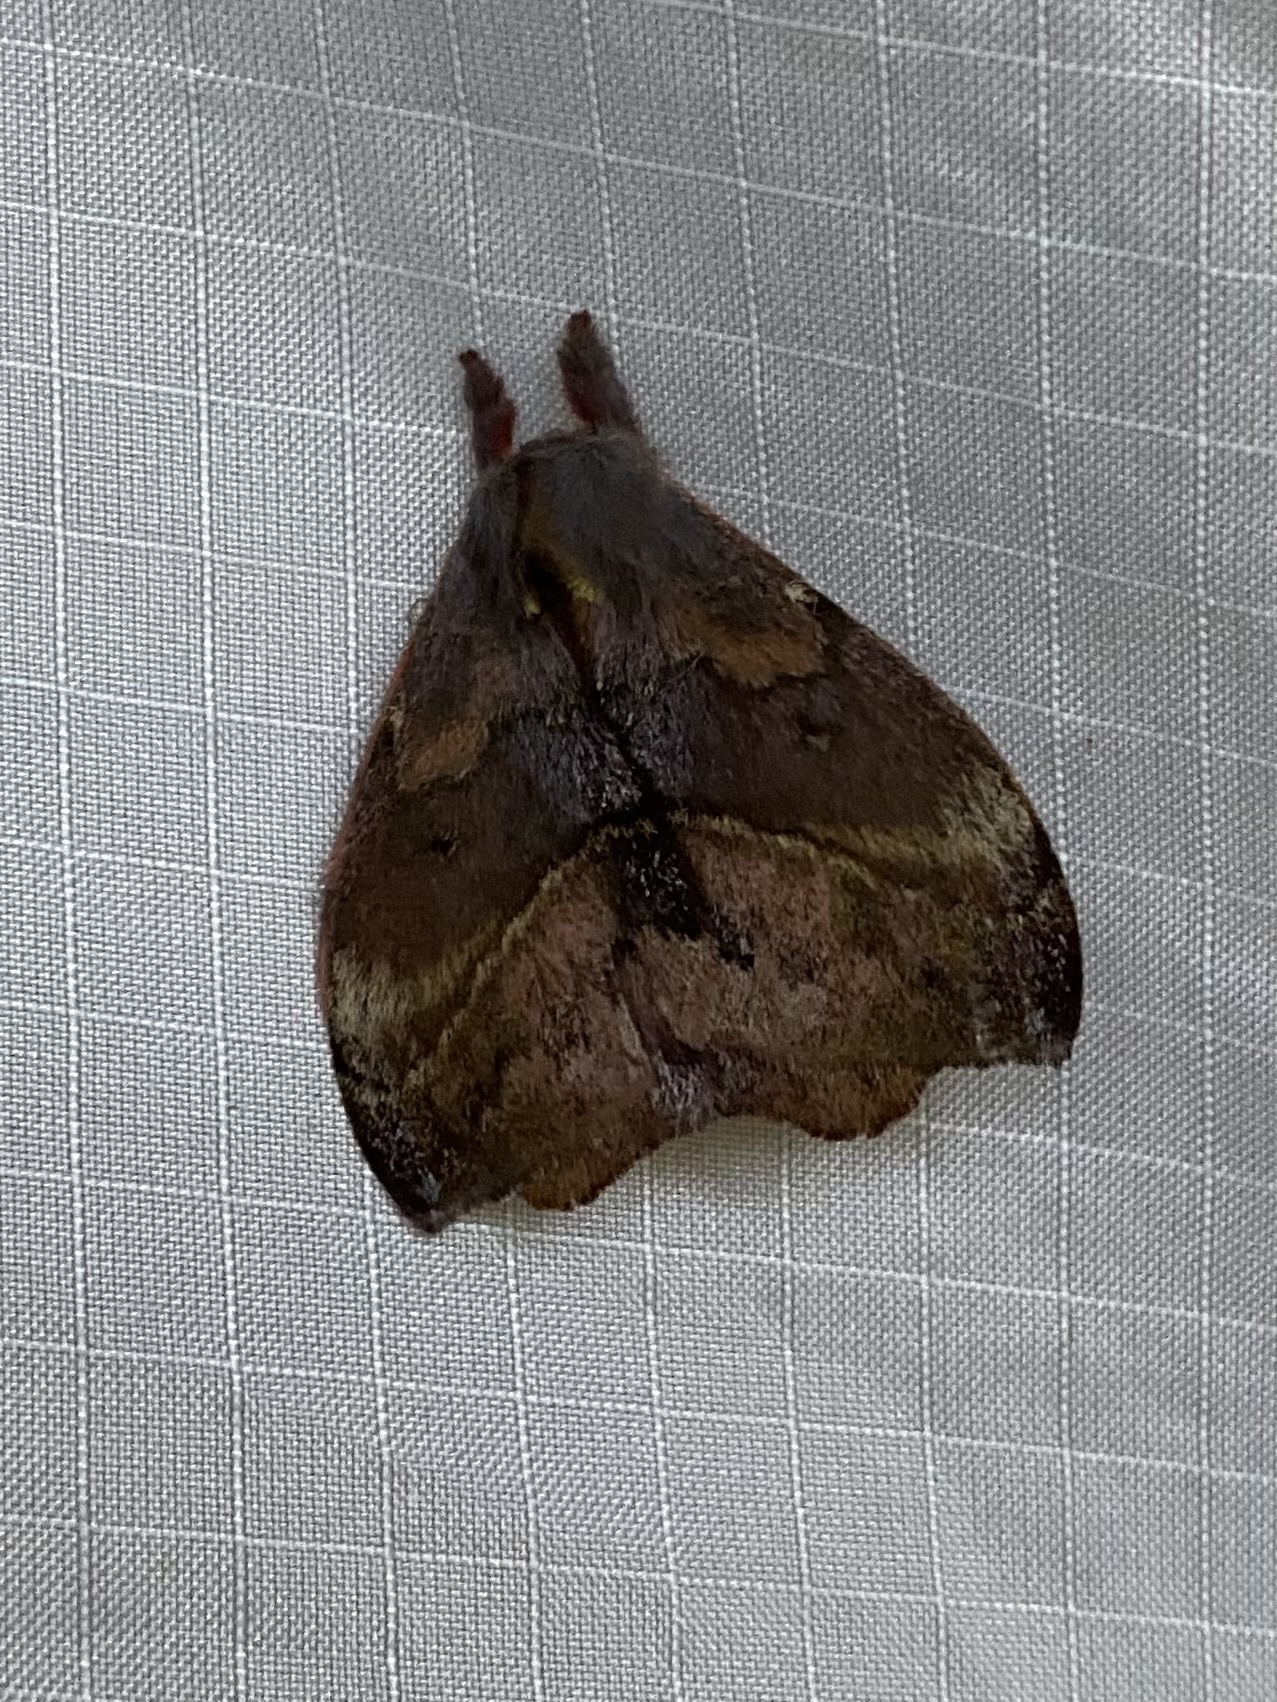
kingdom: Animalia
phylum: Arthropoda
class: Insecta
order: Lepidoptera
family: Saturniidae
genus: Hylesia
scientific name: Hylesia aeneides
